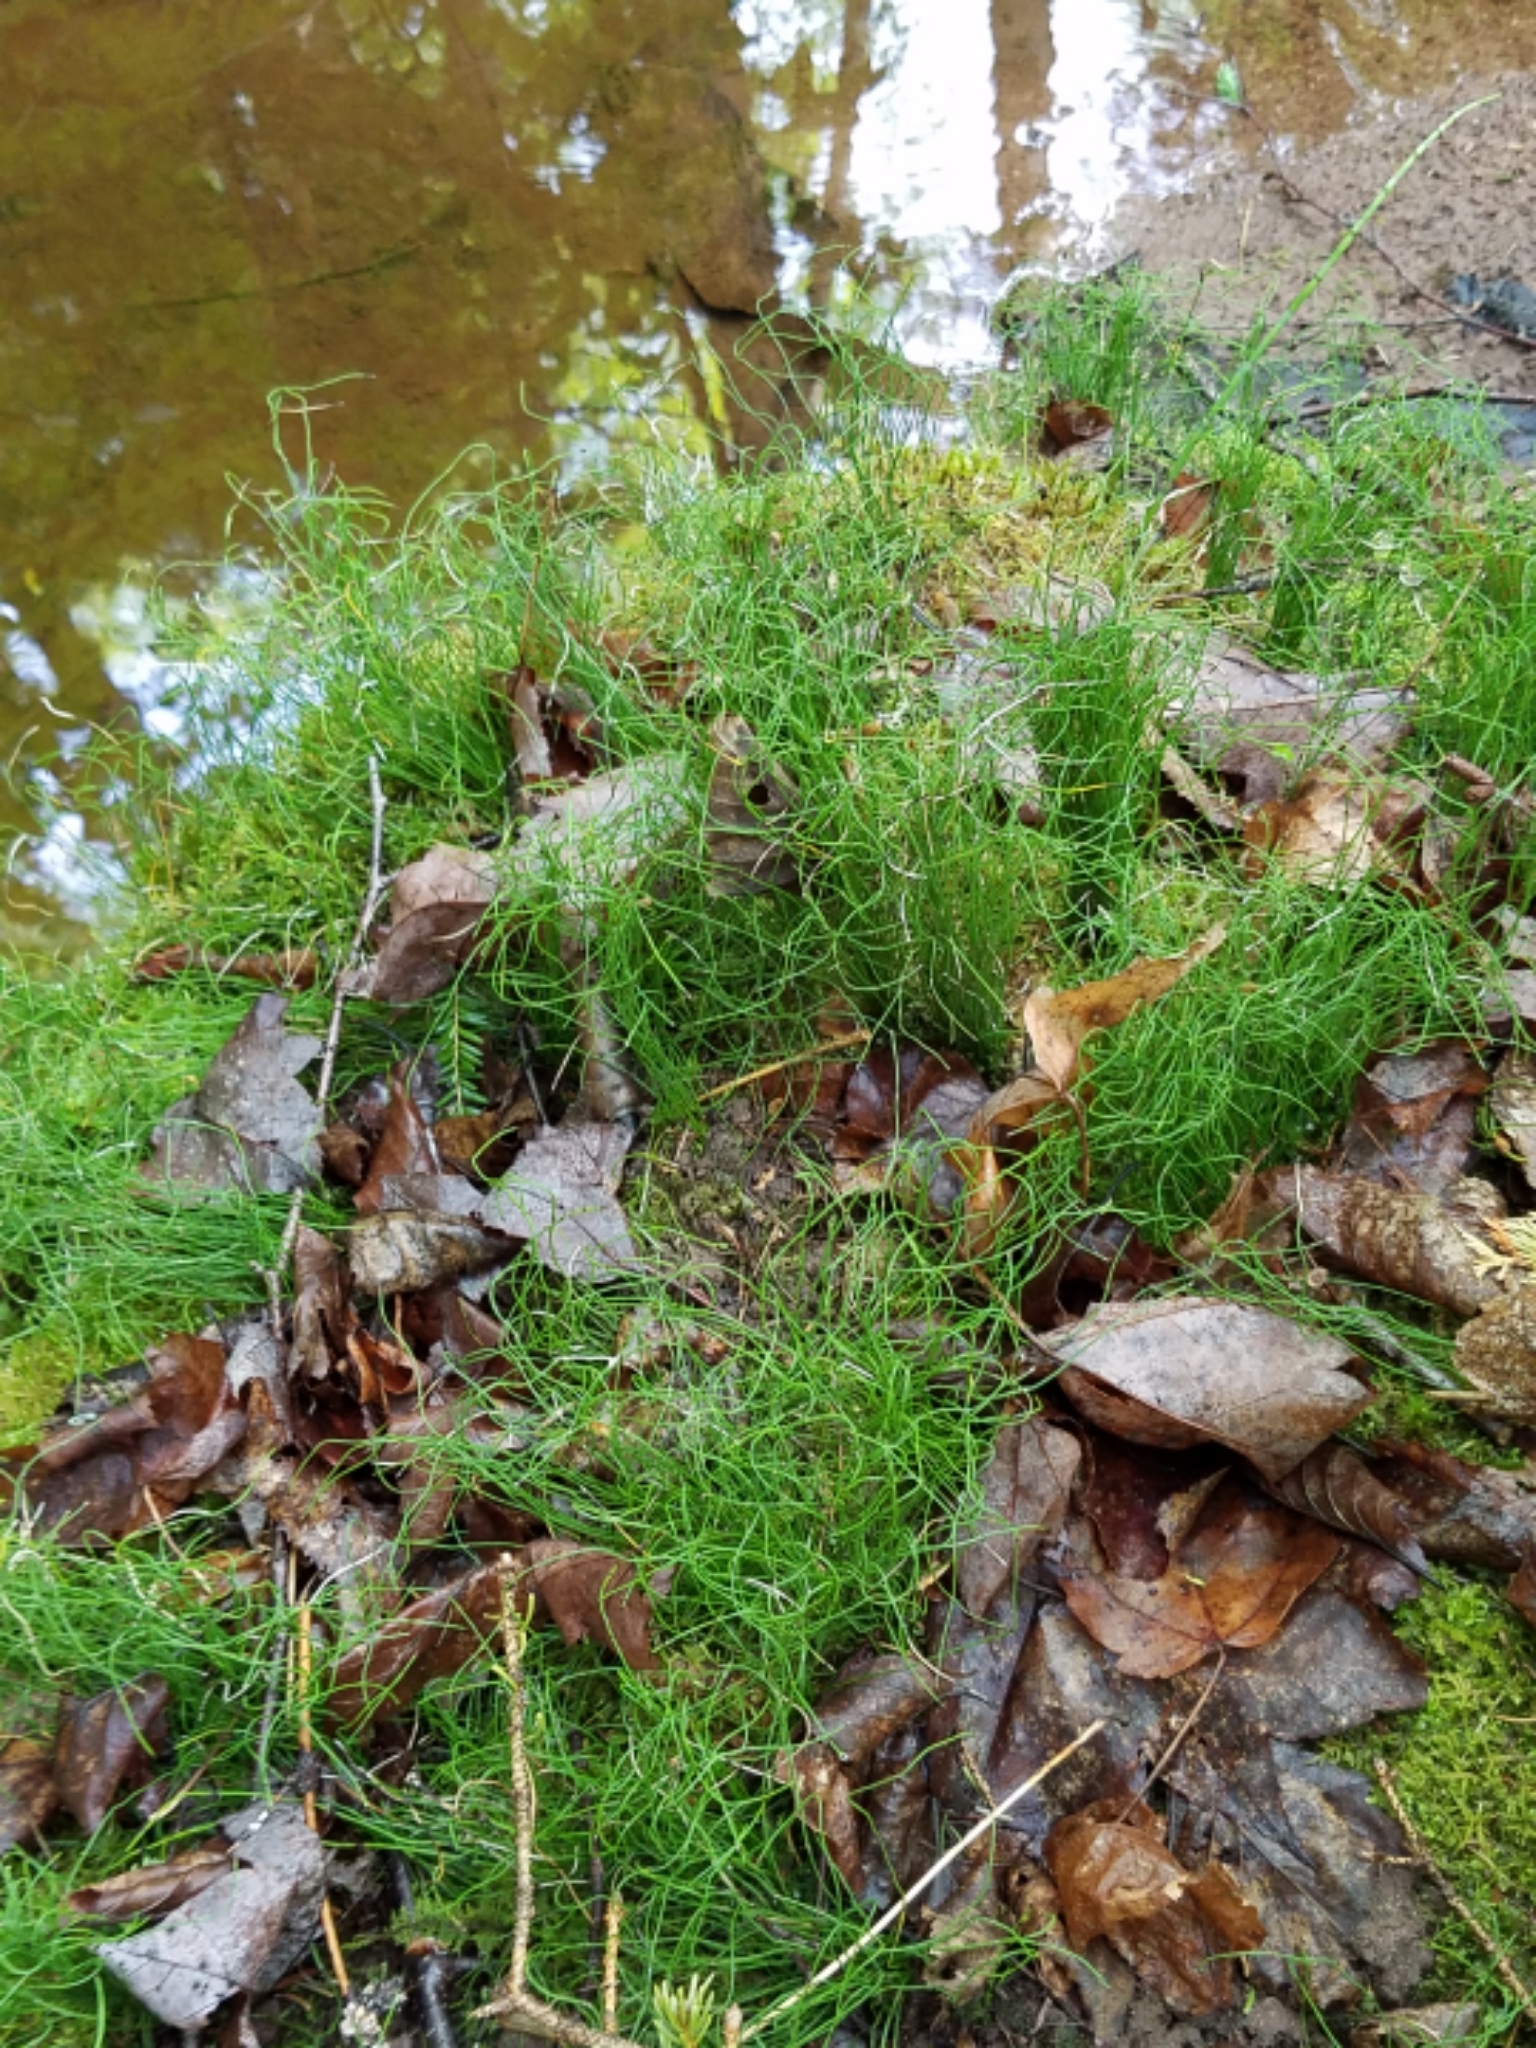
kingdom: Plantae
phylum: Tracheophyta
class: Polypodiopsida
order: Equisetales
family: Equisetaceae
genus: Equisetum
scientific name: Equisetum scirpoides
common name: Delicate horsetail
